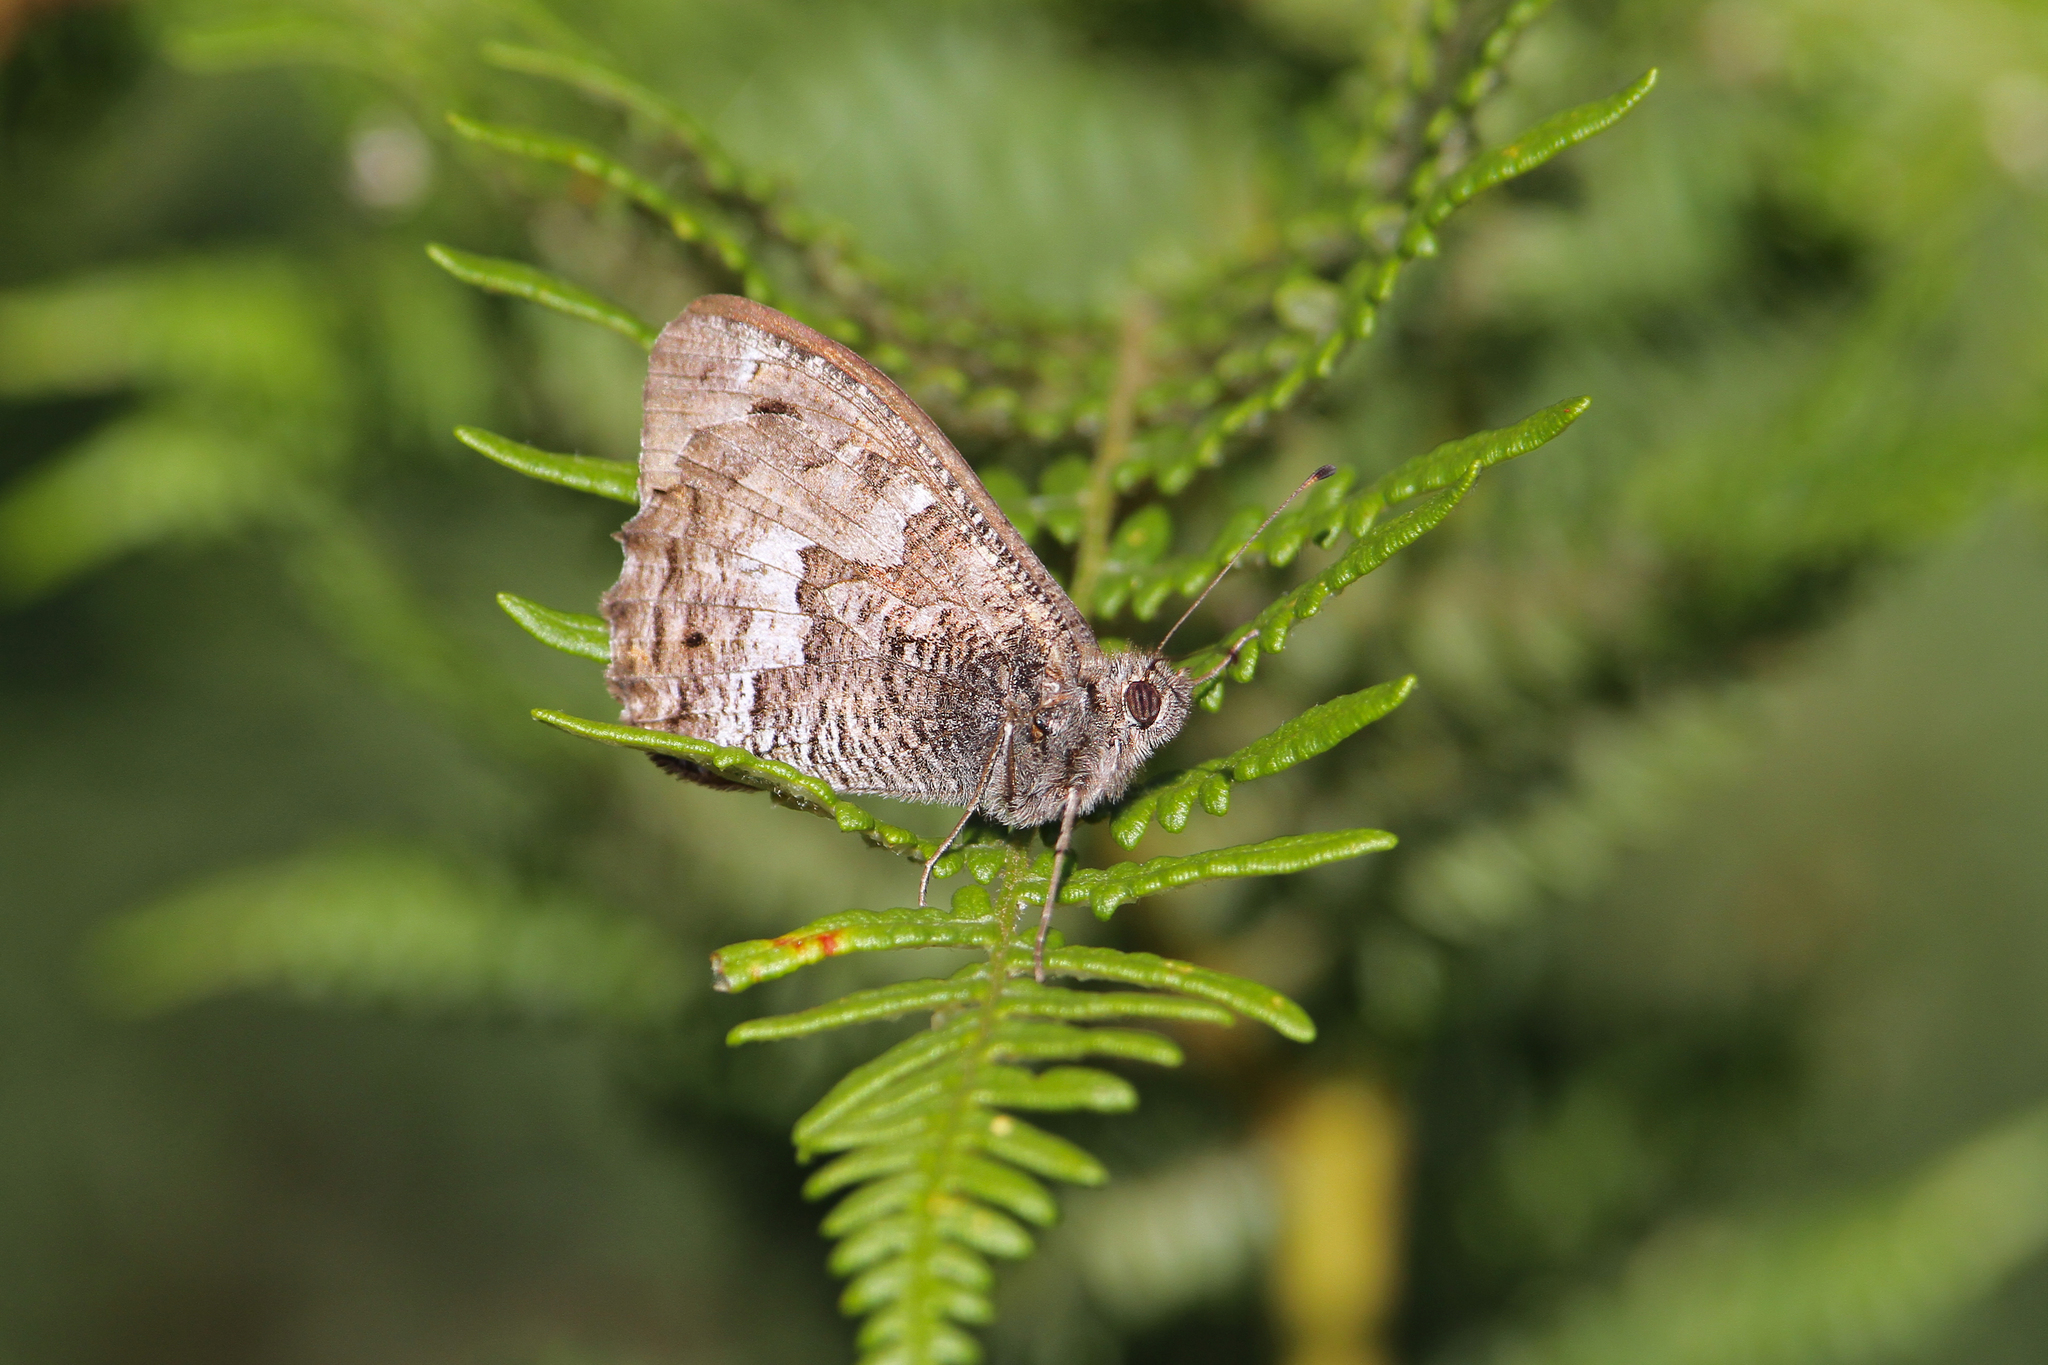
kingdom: Animalia
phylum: Arthropoda
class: Insecta
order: Lepidoptera
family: Nymphalidae
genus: Hipparchia
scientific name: Hipparchia algirica
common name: Mountain grayling
